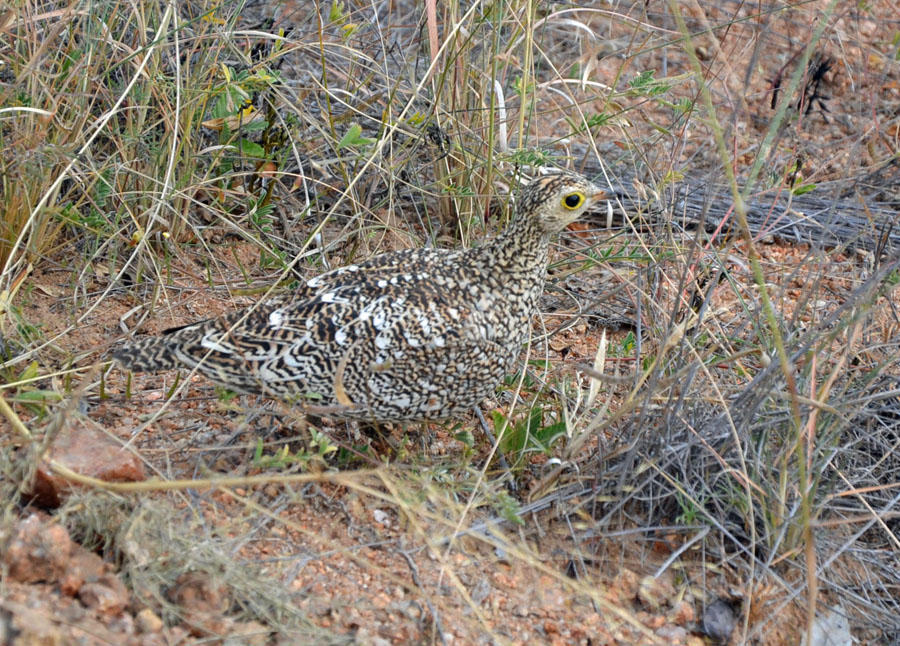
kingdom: Animalia
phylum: Chordata
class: Aves
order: Pteroclidiformes
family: Pteroclididae
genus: Pterocles
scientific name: Pterocles bicinctus
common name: Double-banded sandgrouse
